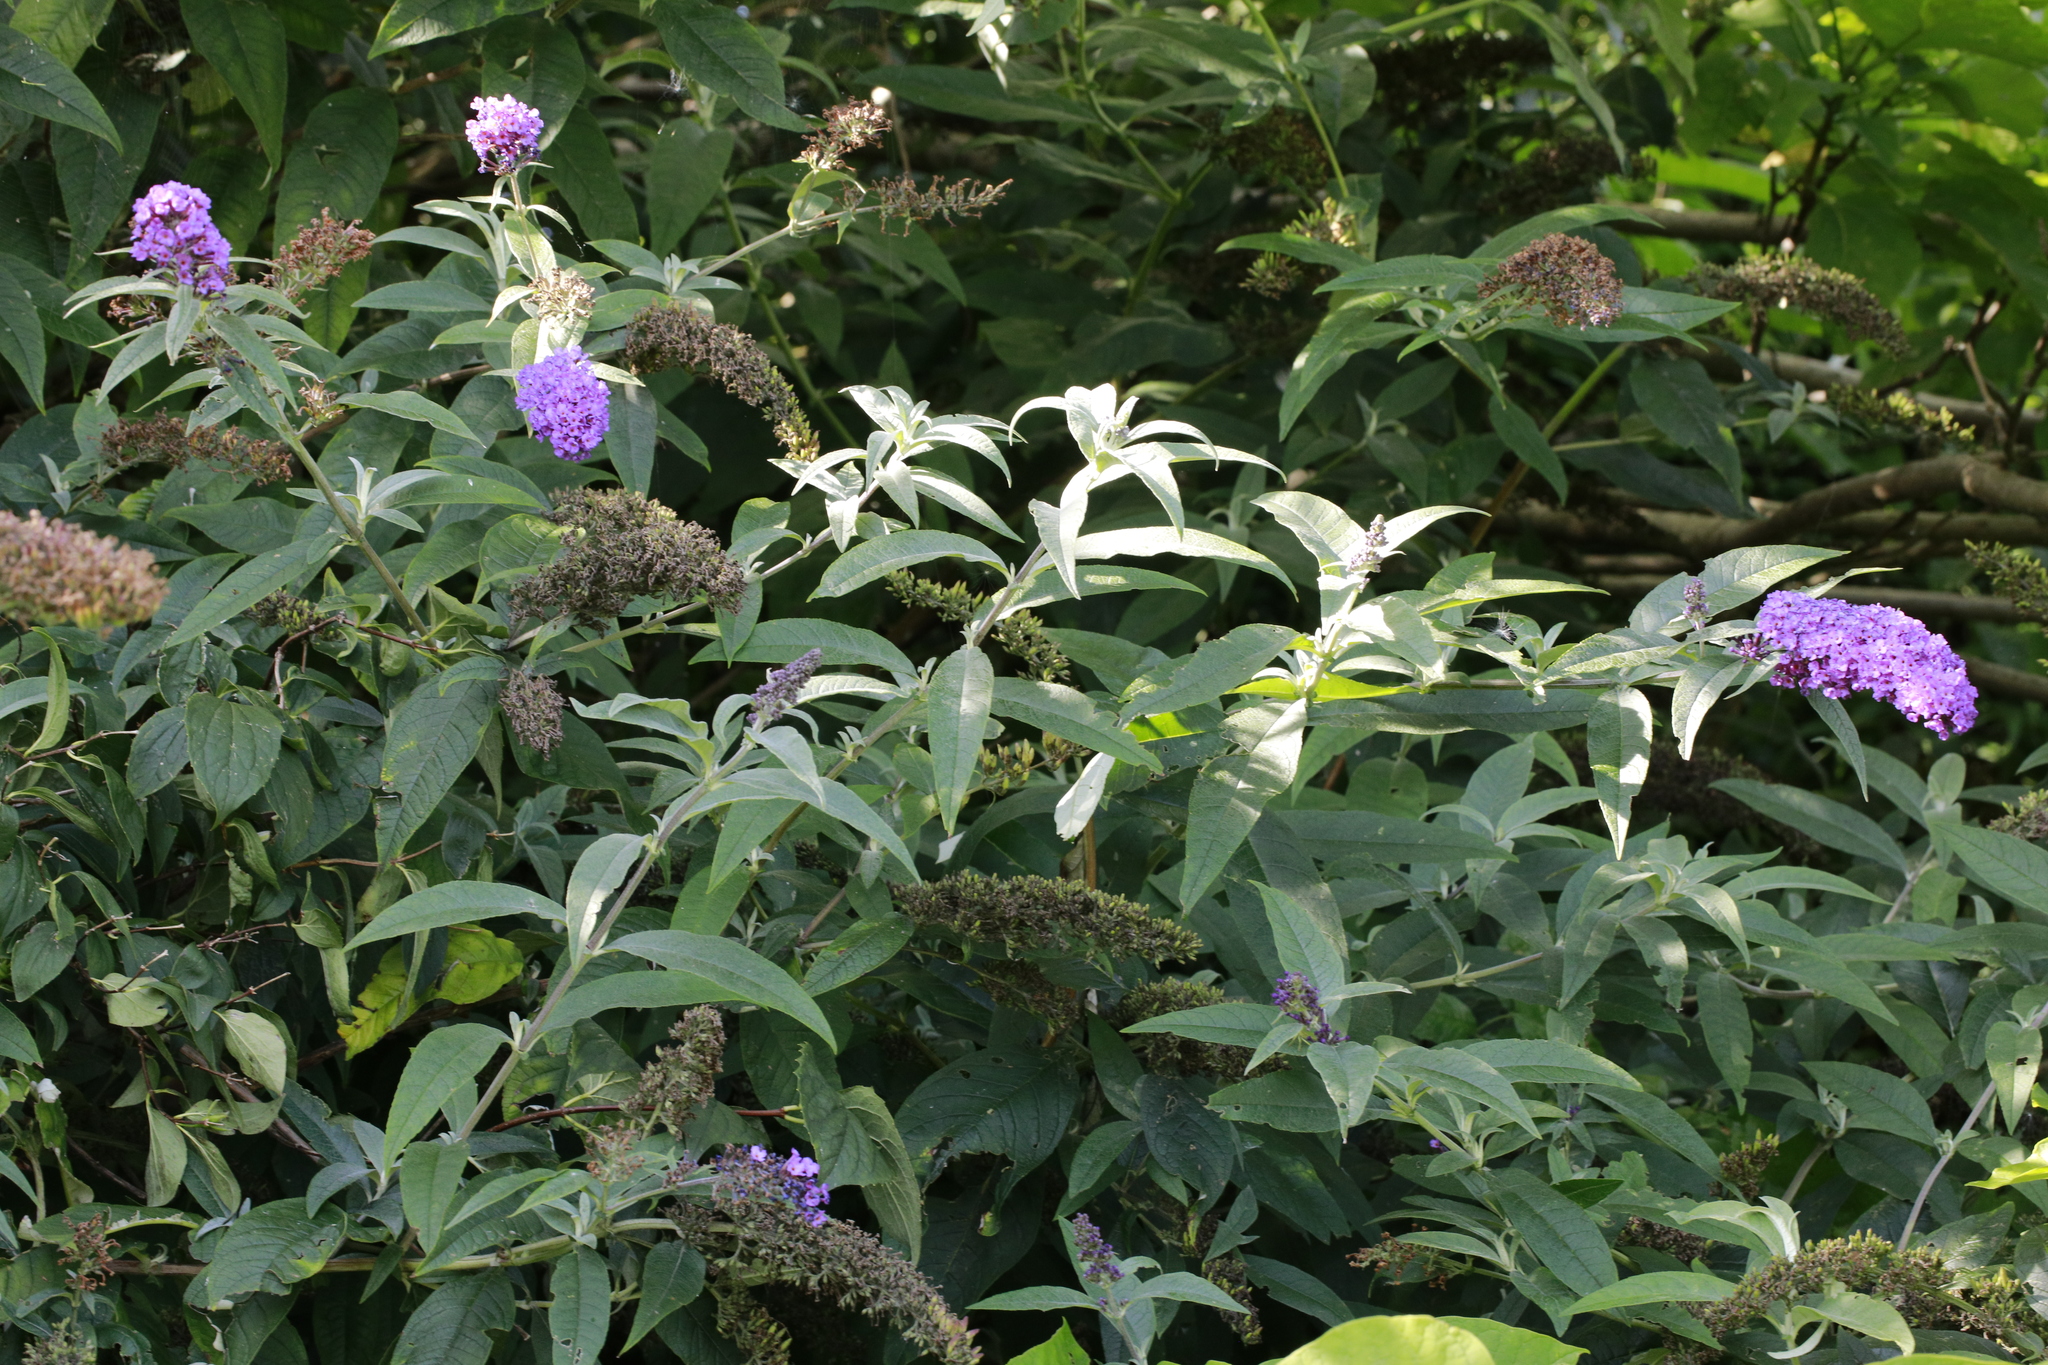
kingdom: Plantae
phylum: Tracheophyta
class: Magnoliopsida
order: Lamiales
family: Scrophulariaceae
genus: Buddleja
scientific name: Buddleja davidii
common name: Butterfly-bush
